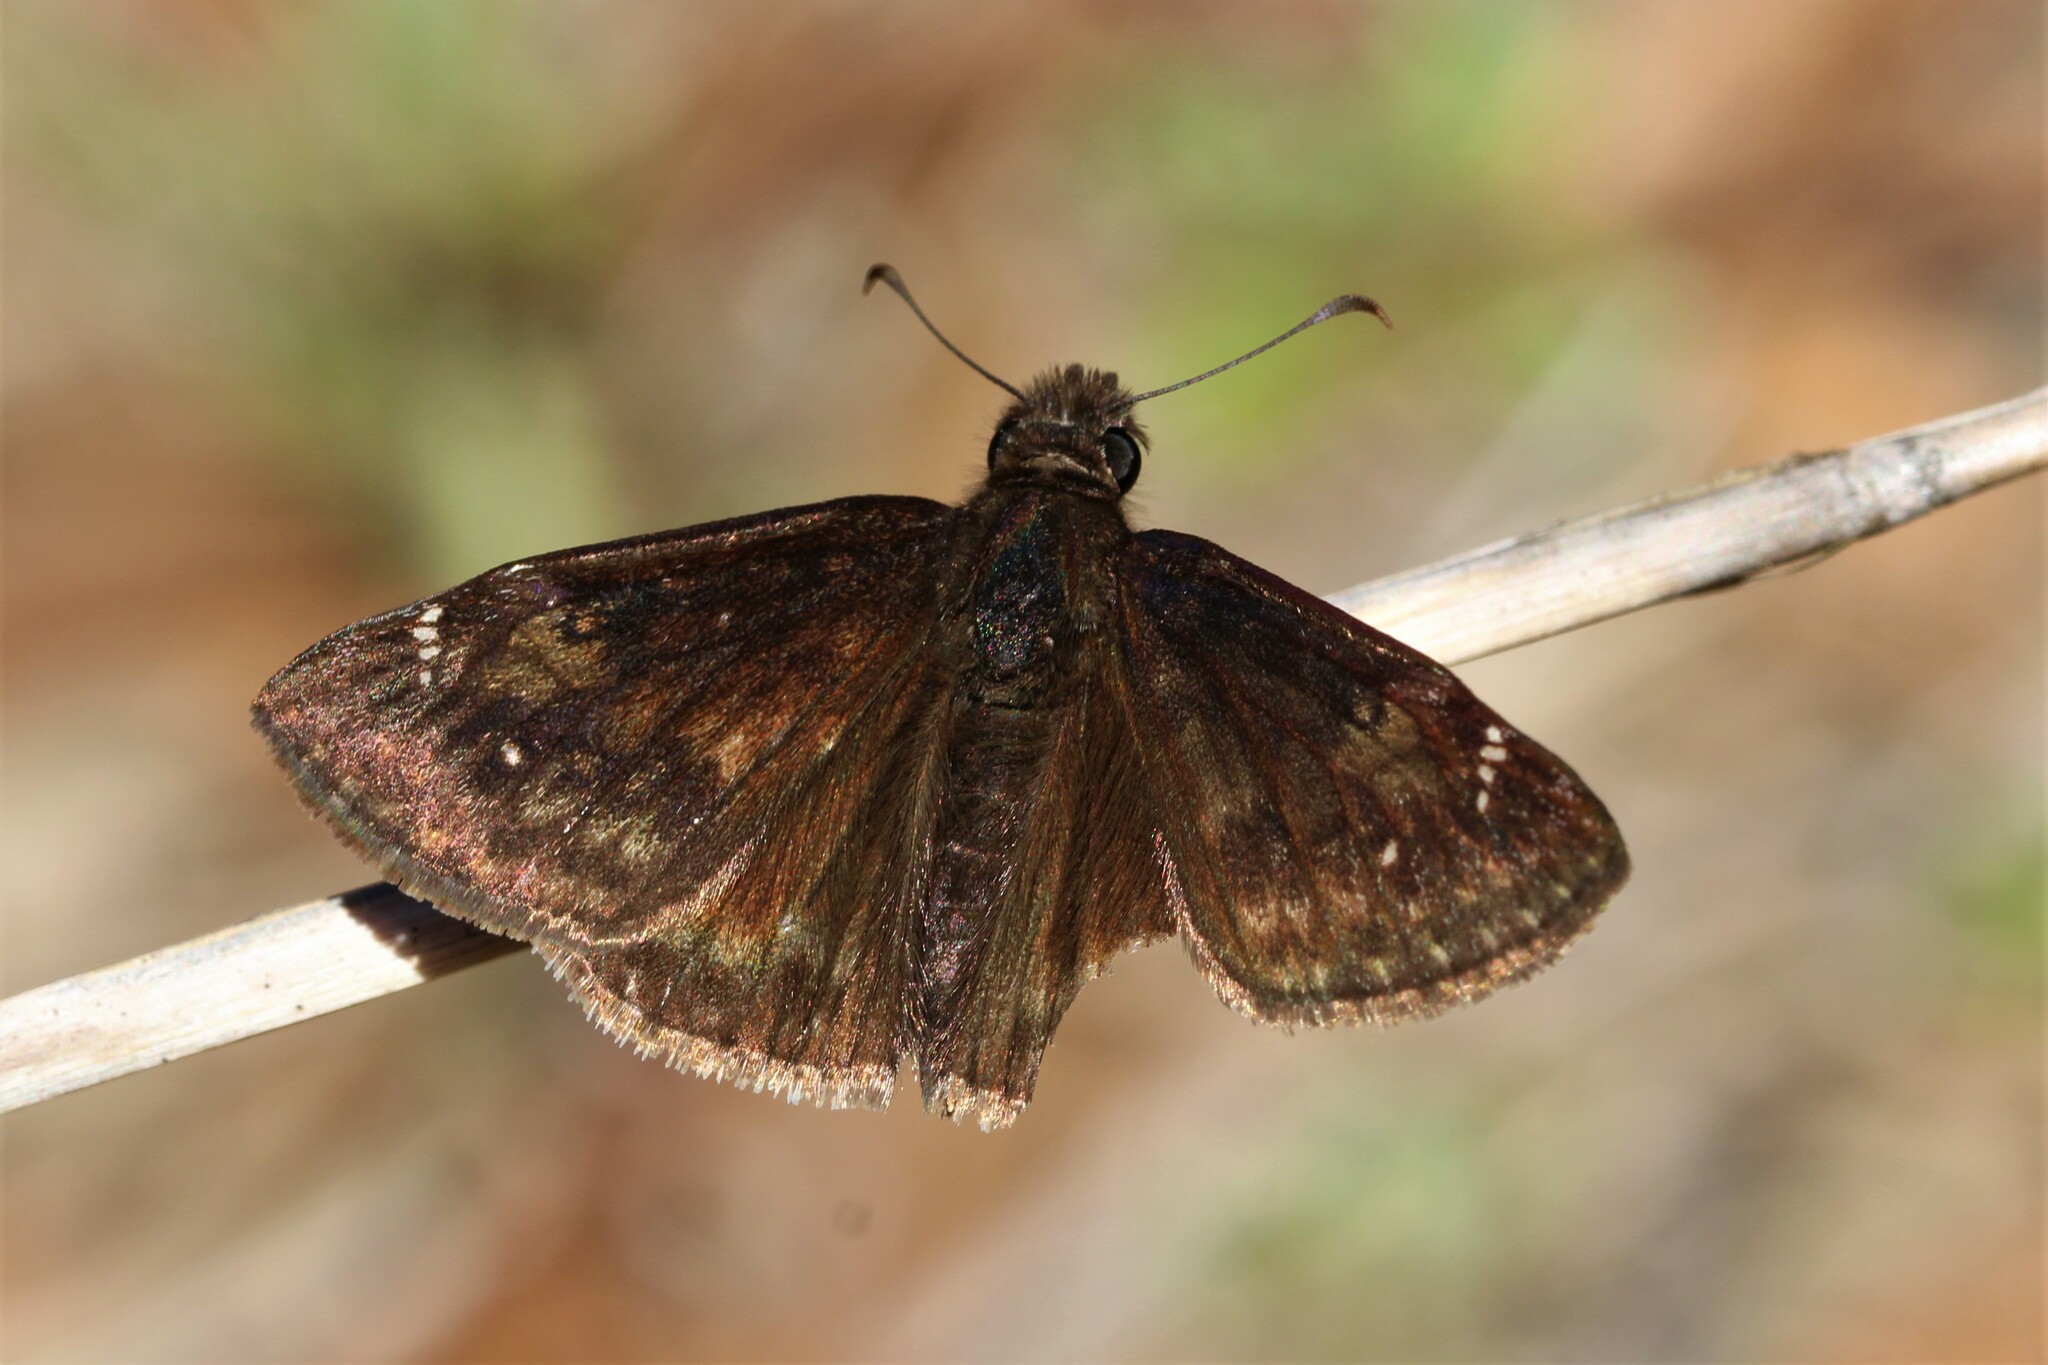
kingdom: Animalia
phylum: Arthropoda
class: Insecta
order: Lepidoptera
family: Hesperiidae
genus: Erynnis
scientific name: Erynnis zarucco
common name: Zarucco duskywing
